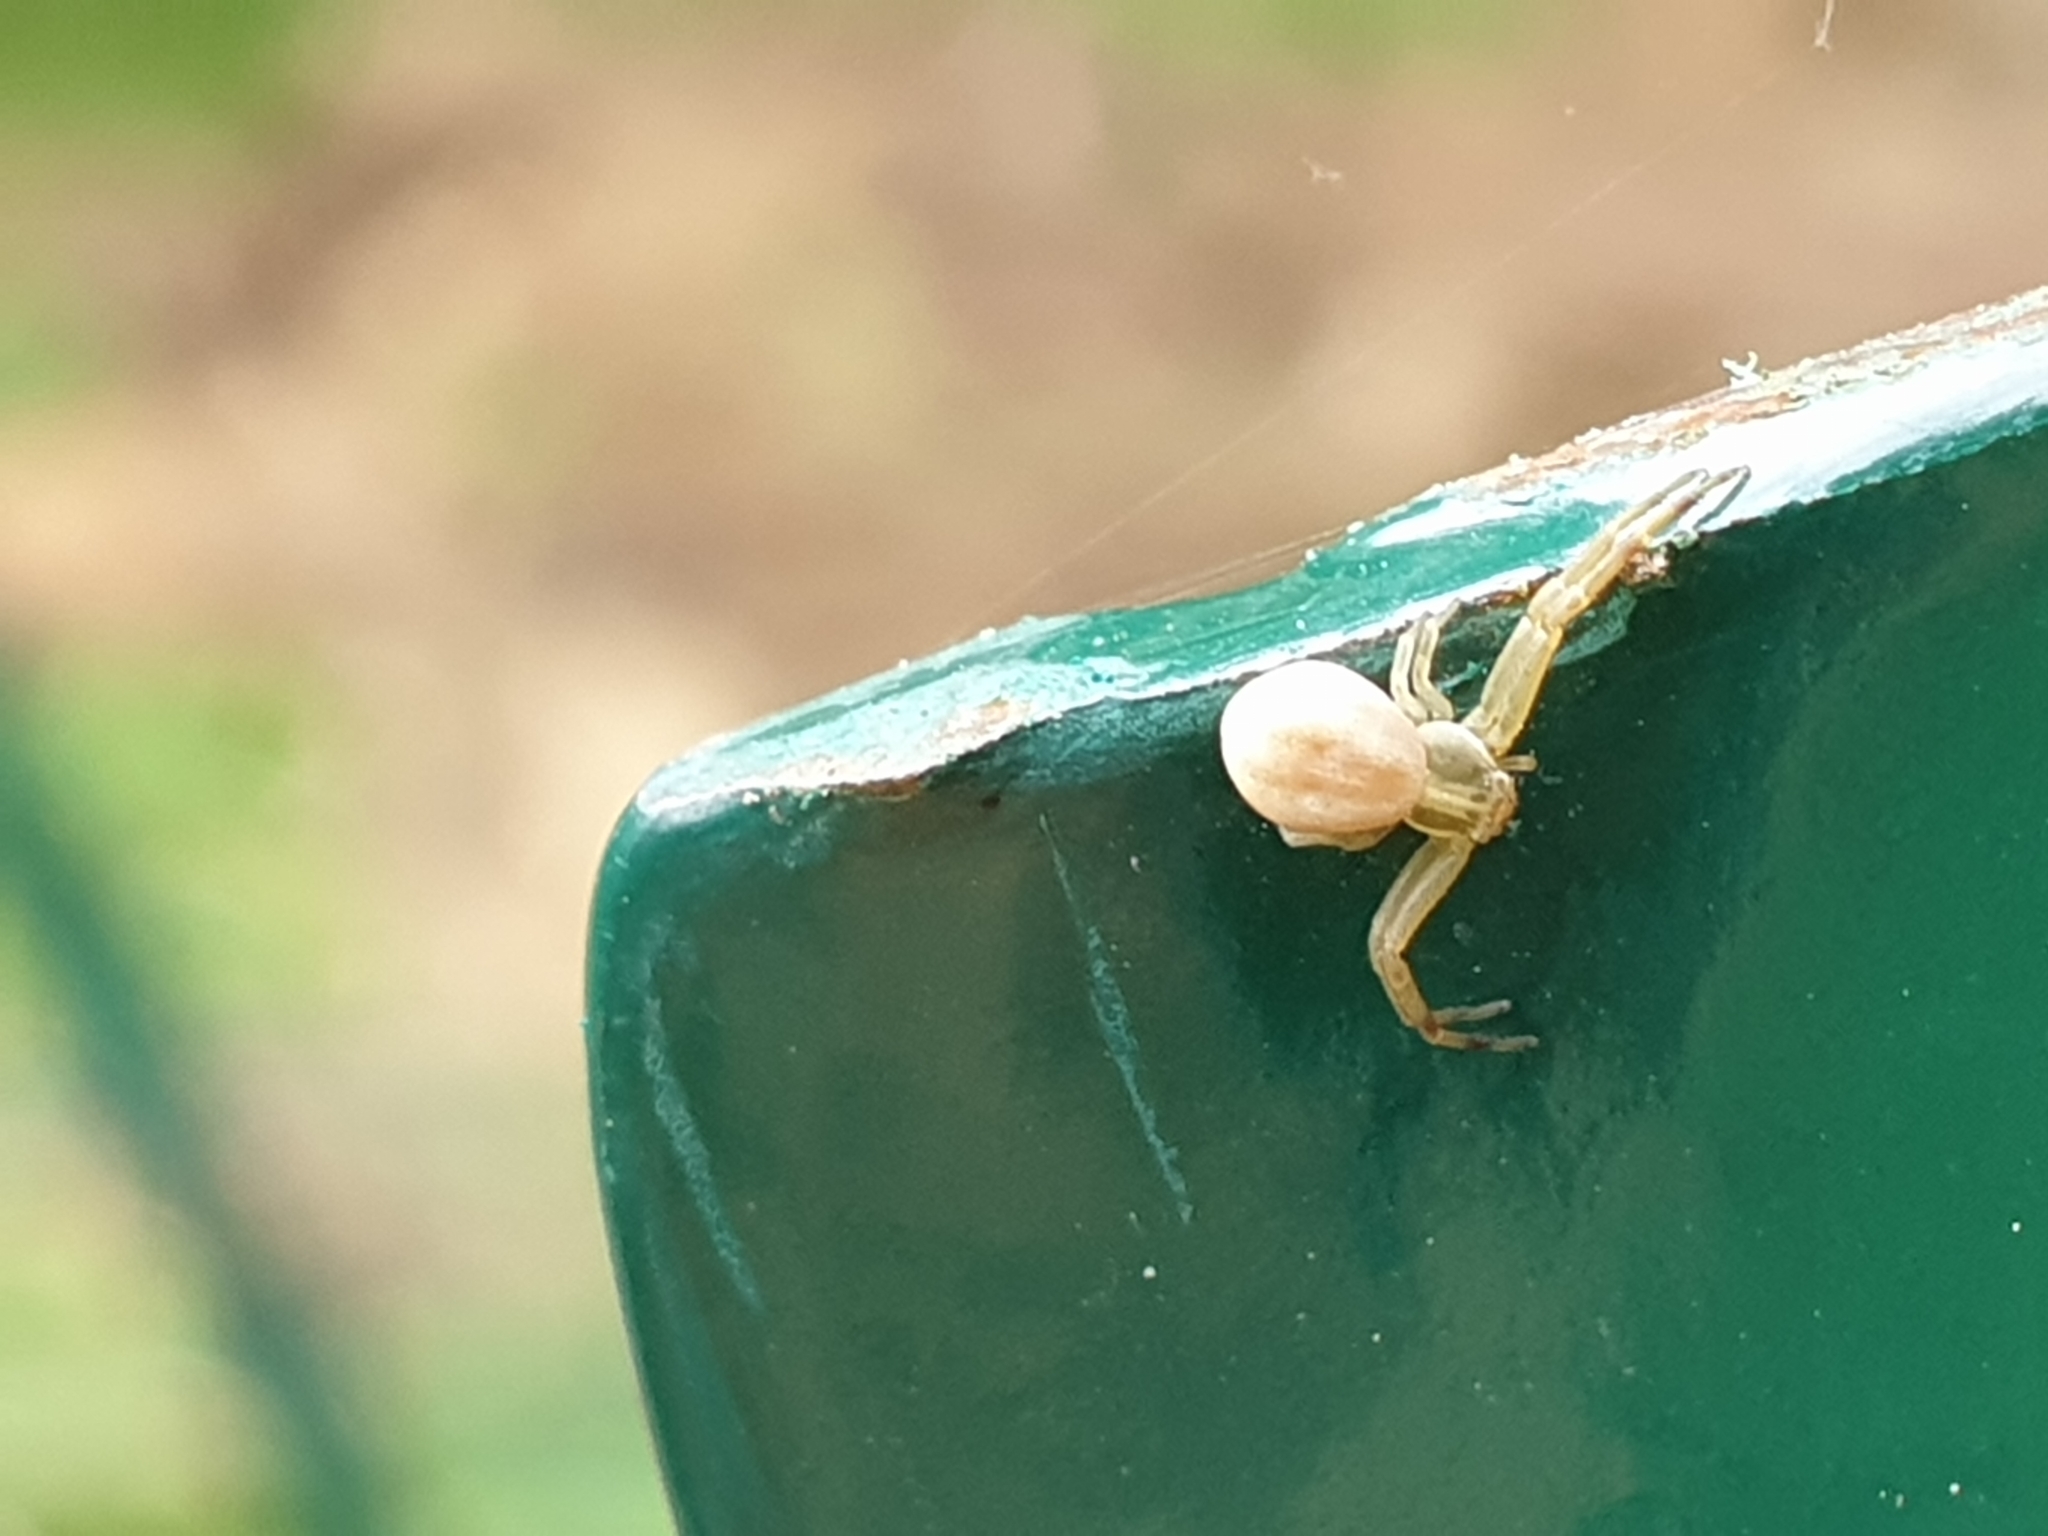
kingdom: Animalia
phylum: Arthropoda
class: Arachnida
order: Araneae
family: Thomisidae
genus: Runcinia
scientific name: Runcinia grammica
